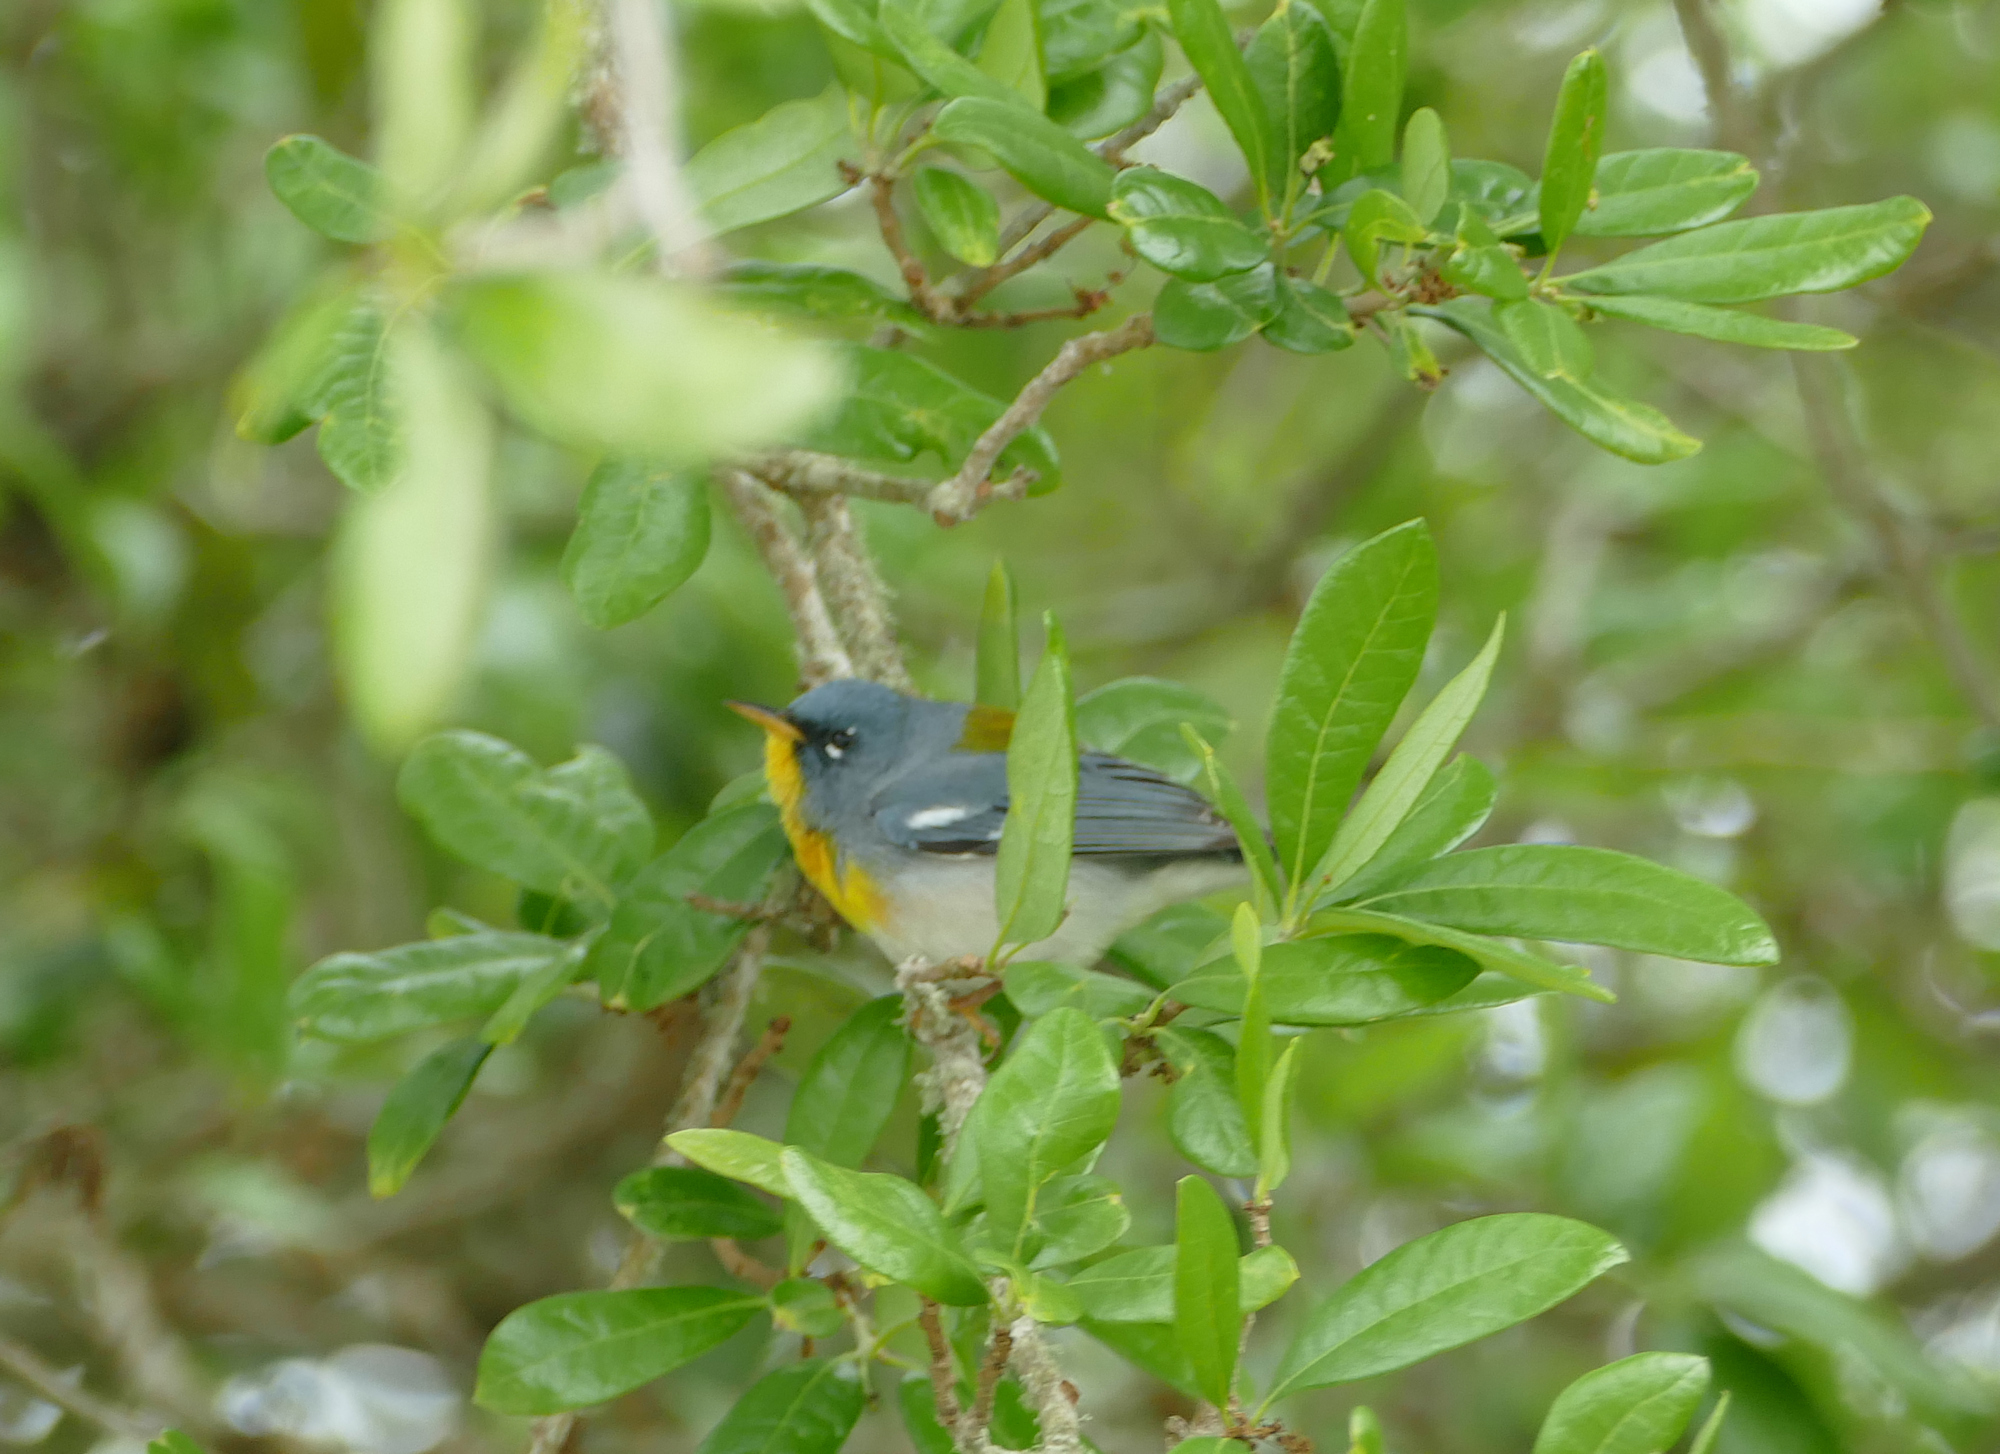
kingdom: Animalia
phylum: Chordata
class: Aves
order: Passeriformes
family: Parulidae
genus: Setophaga
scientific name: Setophaga americana
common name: Northern parula
